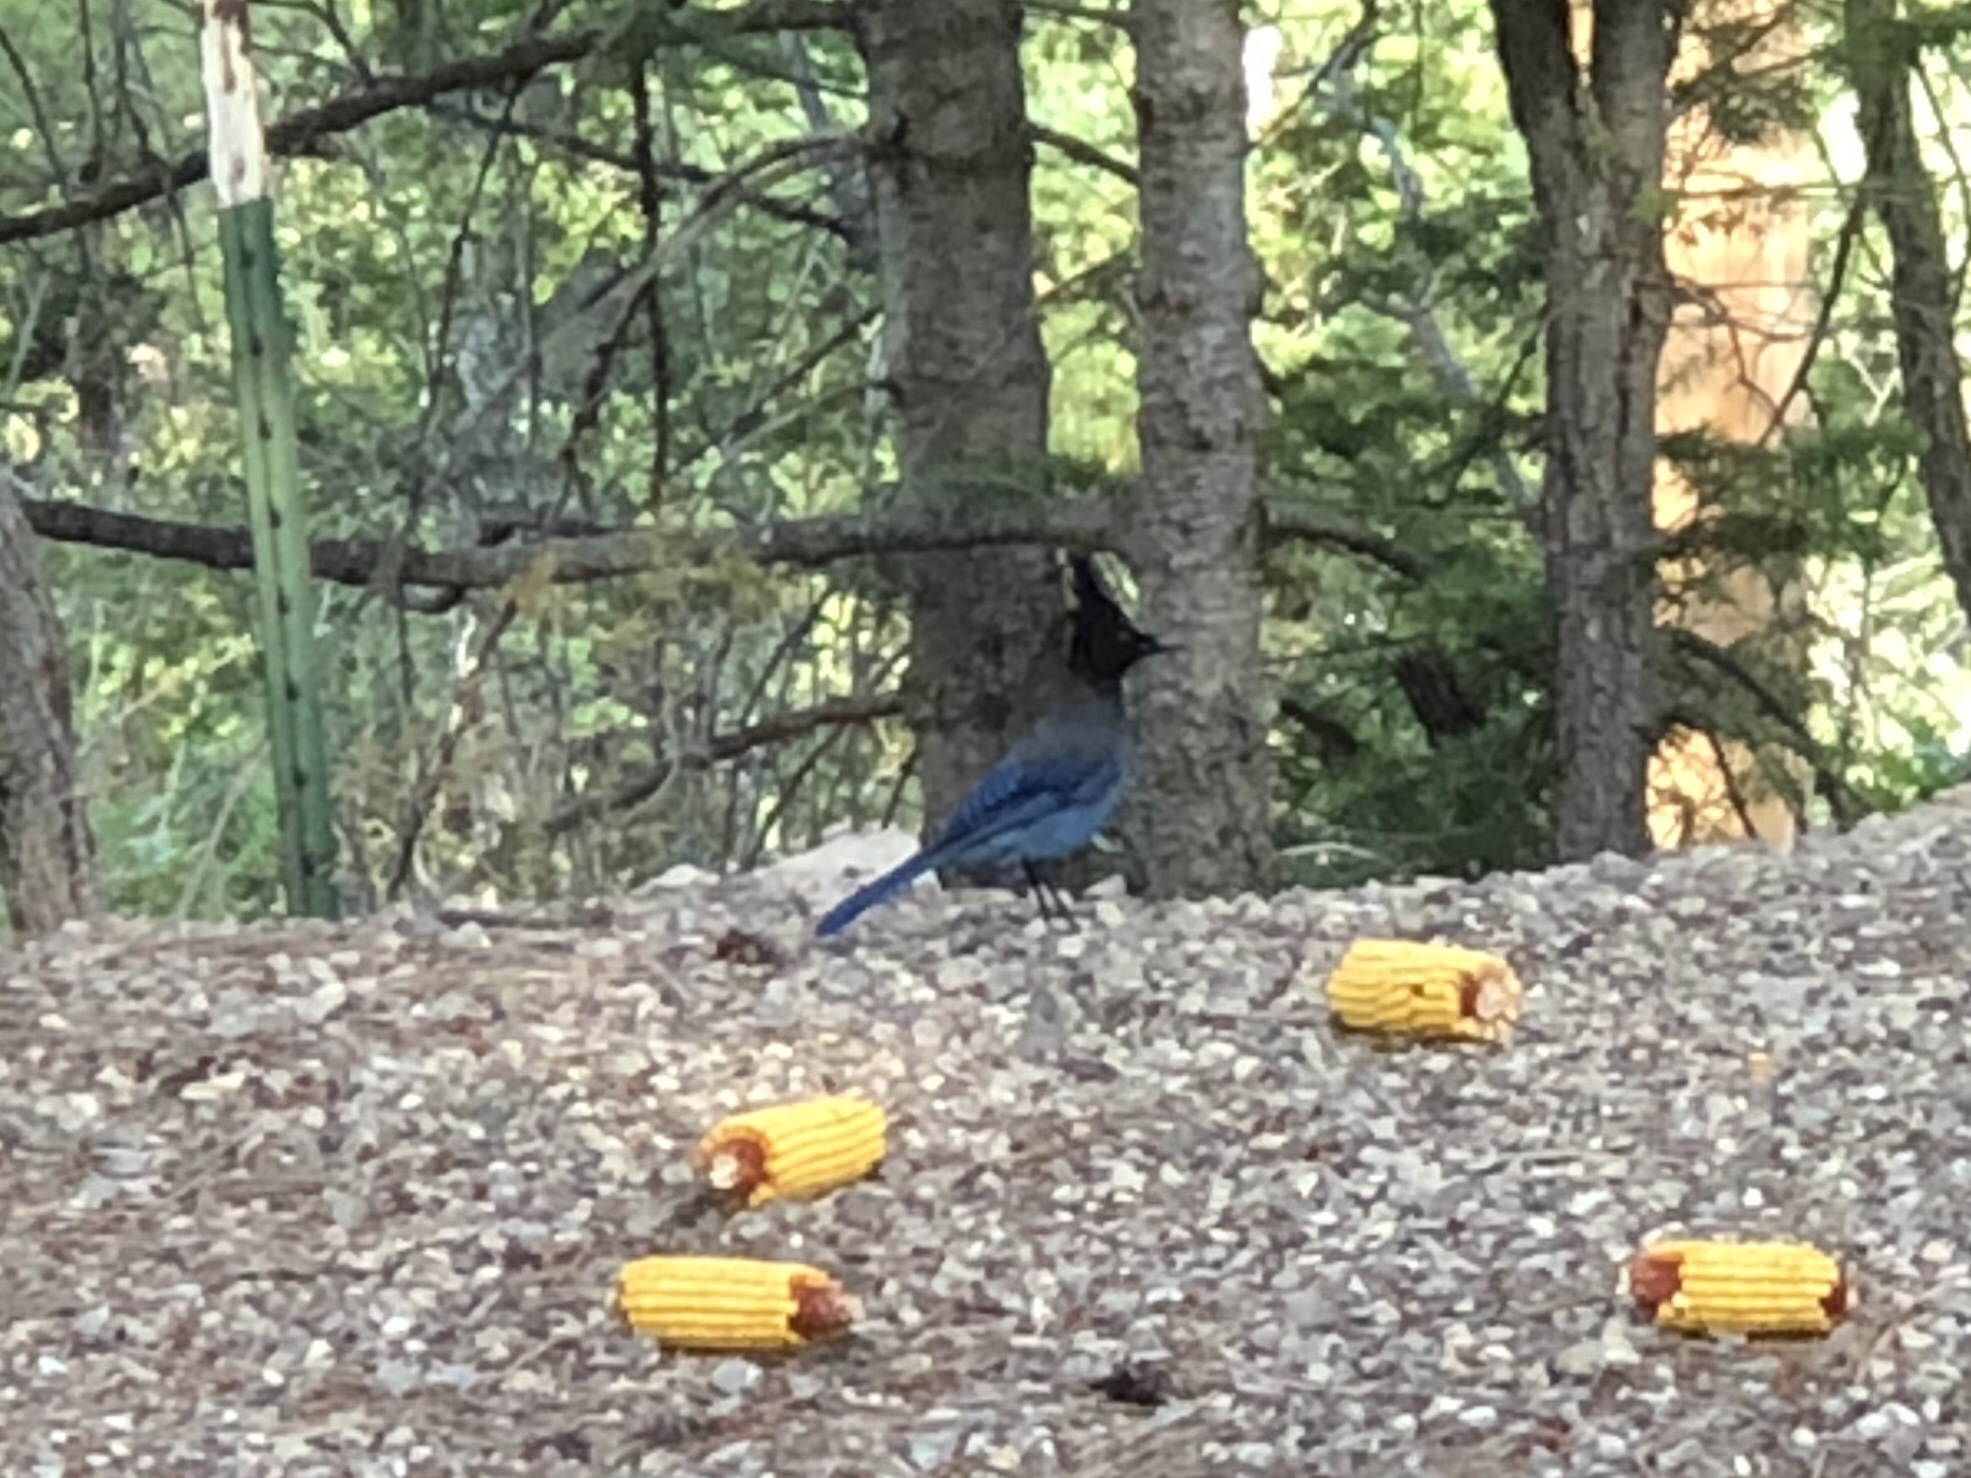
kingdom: Animalia
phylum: Chordata
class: Aves
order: Passeriformes
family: Corvidae
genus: Cyanocitta
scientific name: Cyanocitta stelleri
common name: Steller's jay
